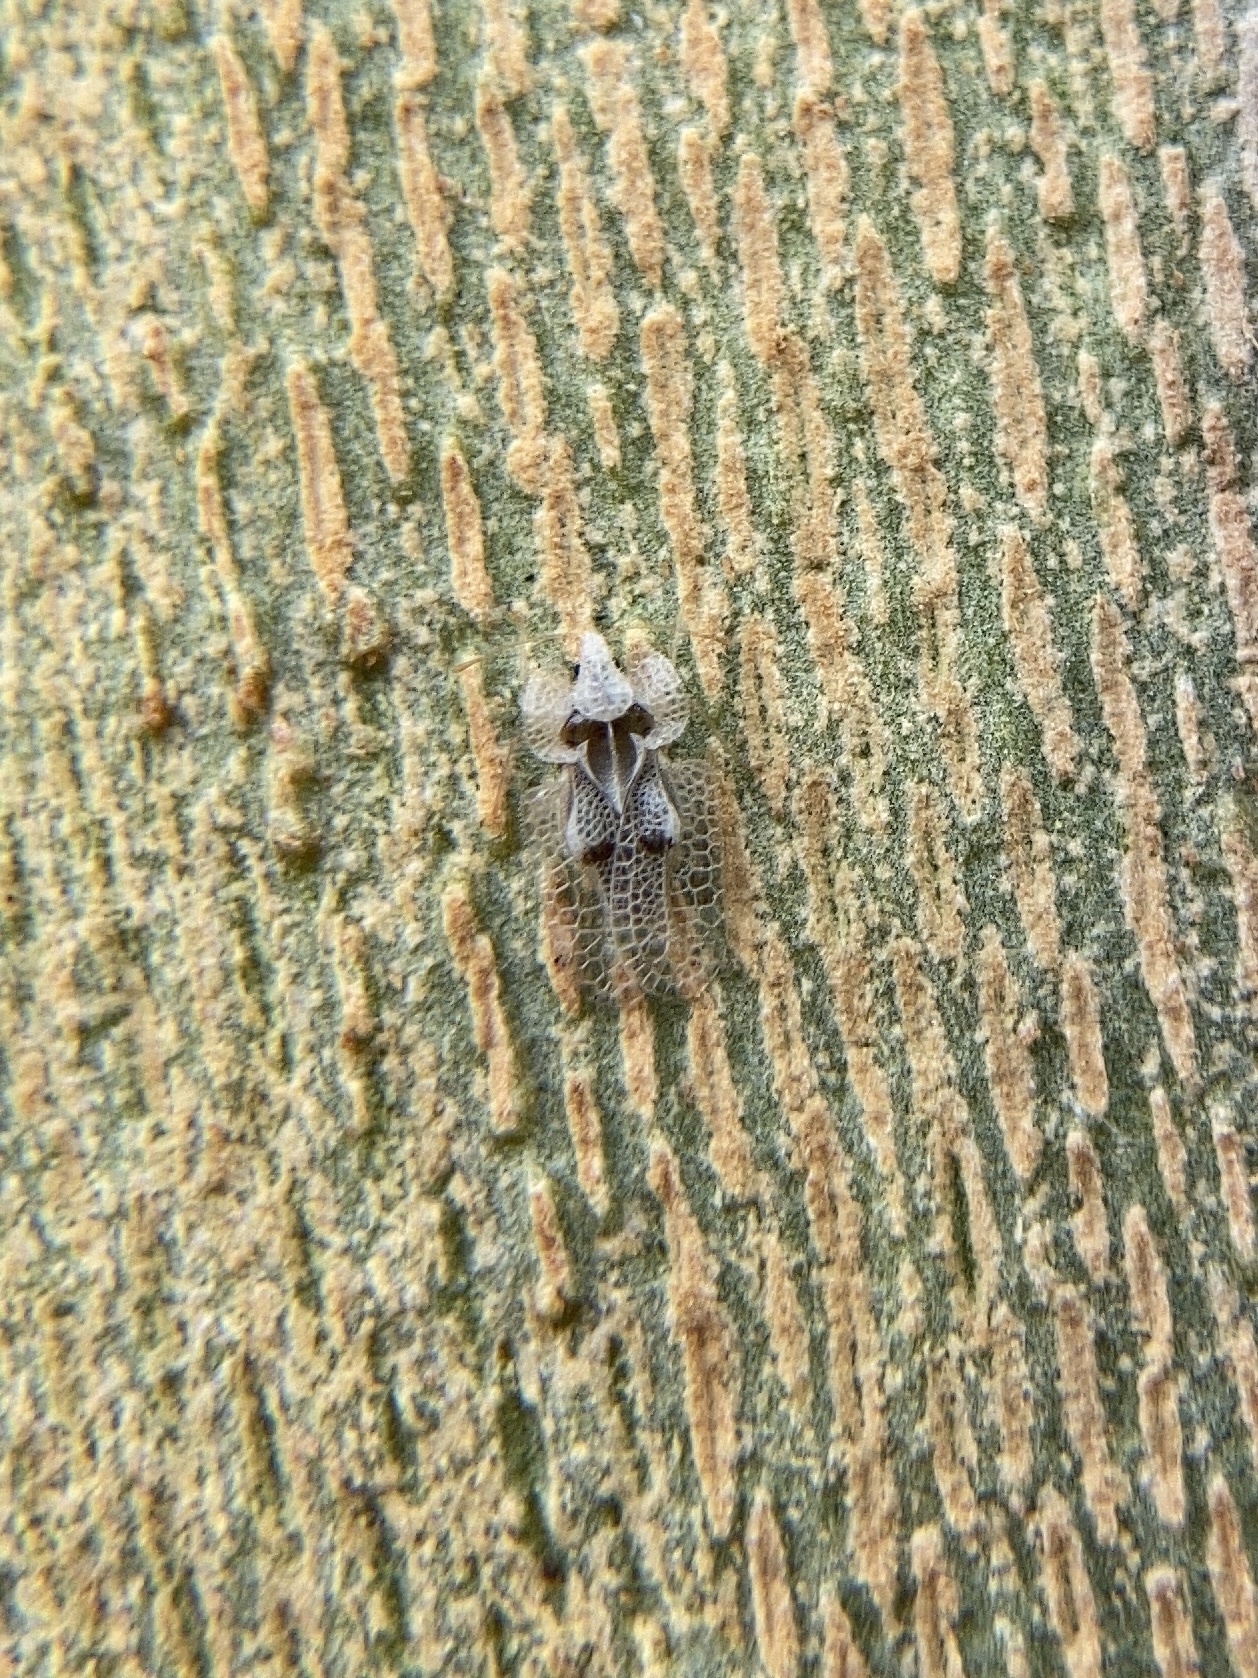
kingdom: Animalia
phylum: Arthropoda
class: Insecta
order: Hemiptera
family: Tingidae
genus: Corythucha
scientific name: Corythucha ciliata
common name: Sycamore lace bug
